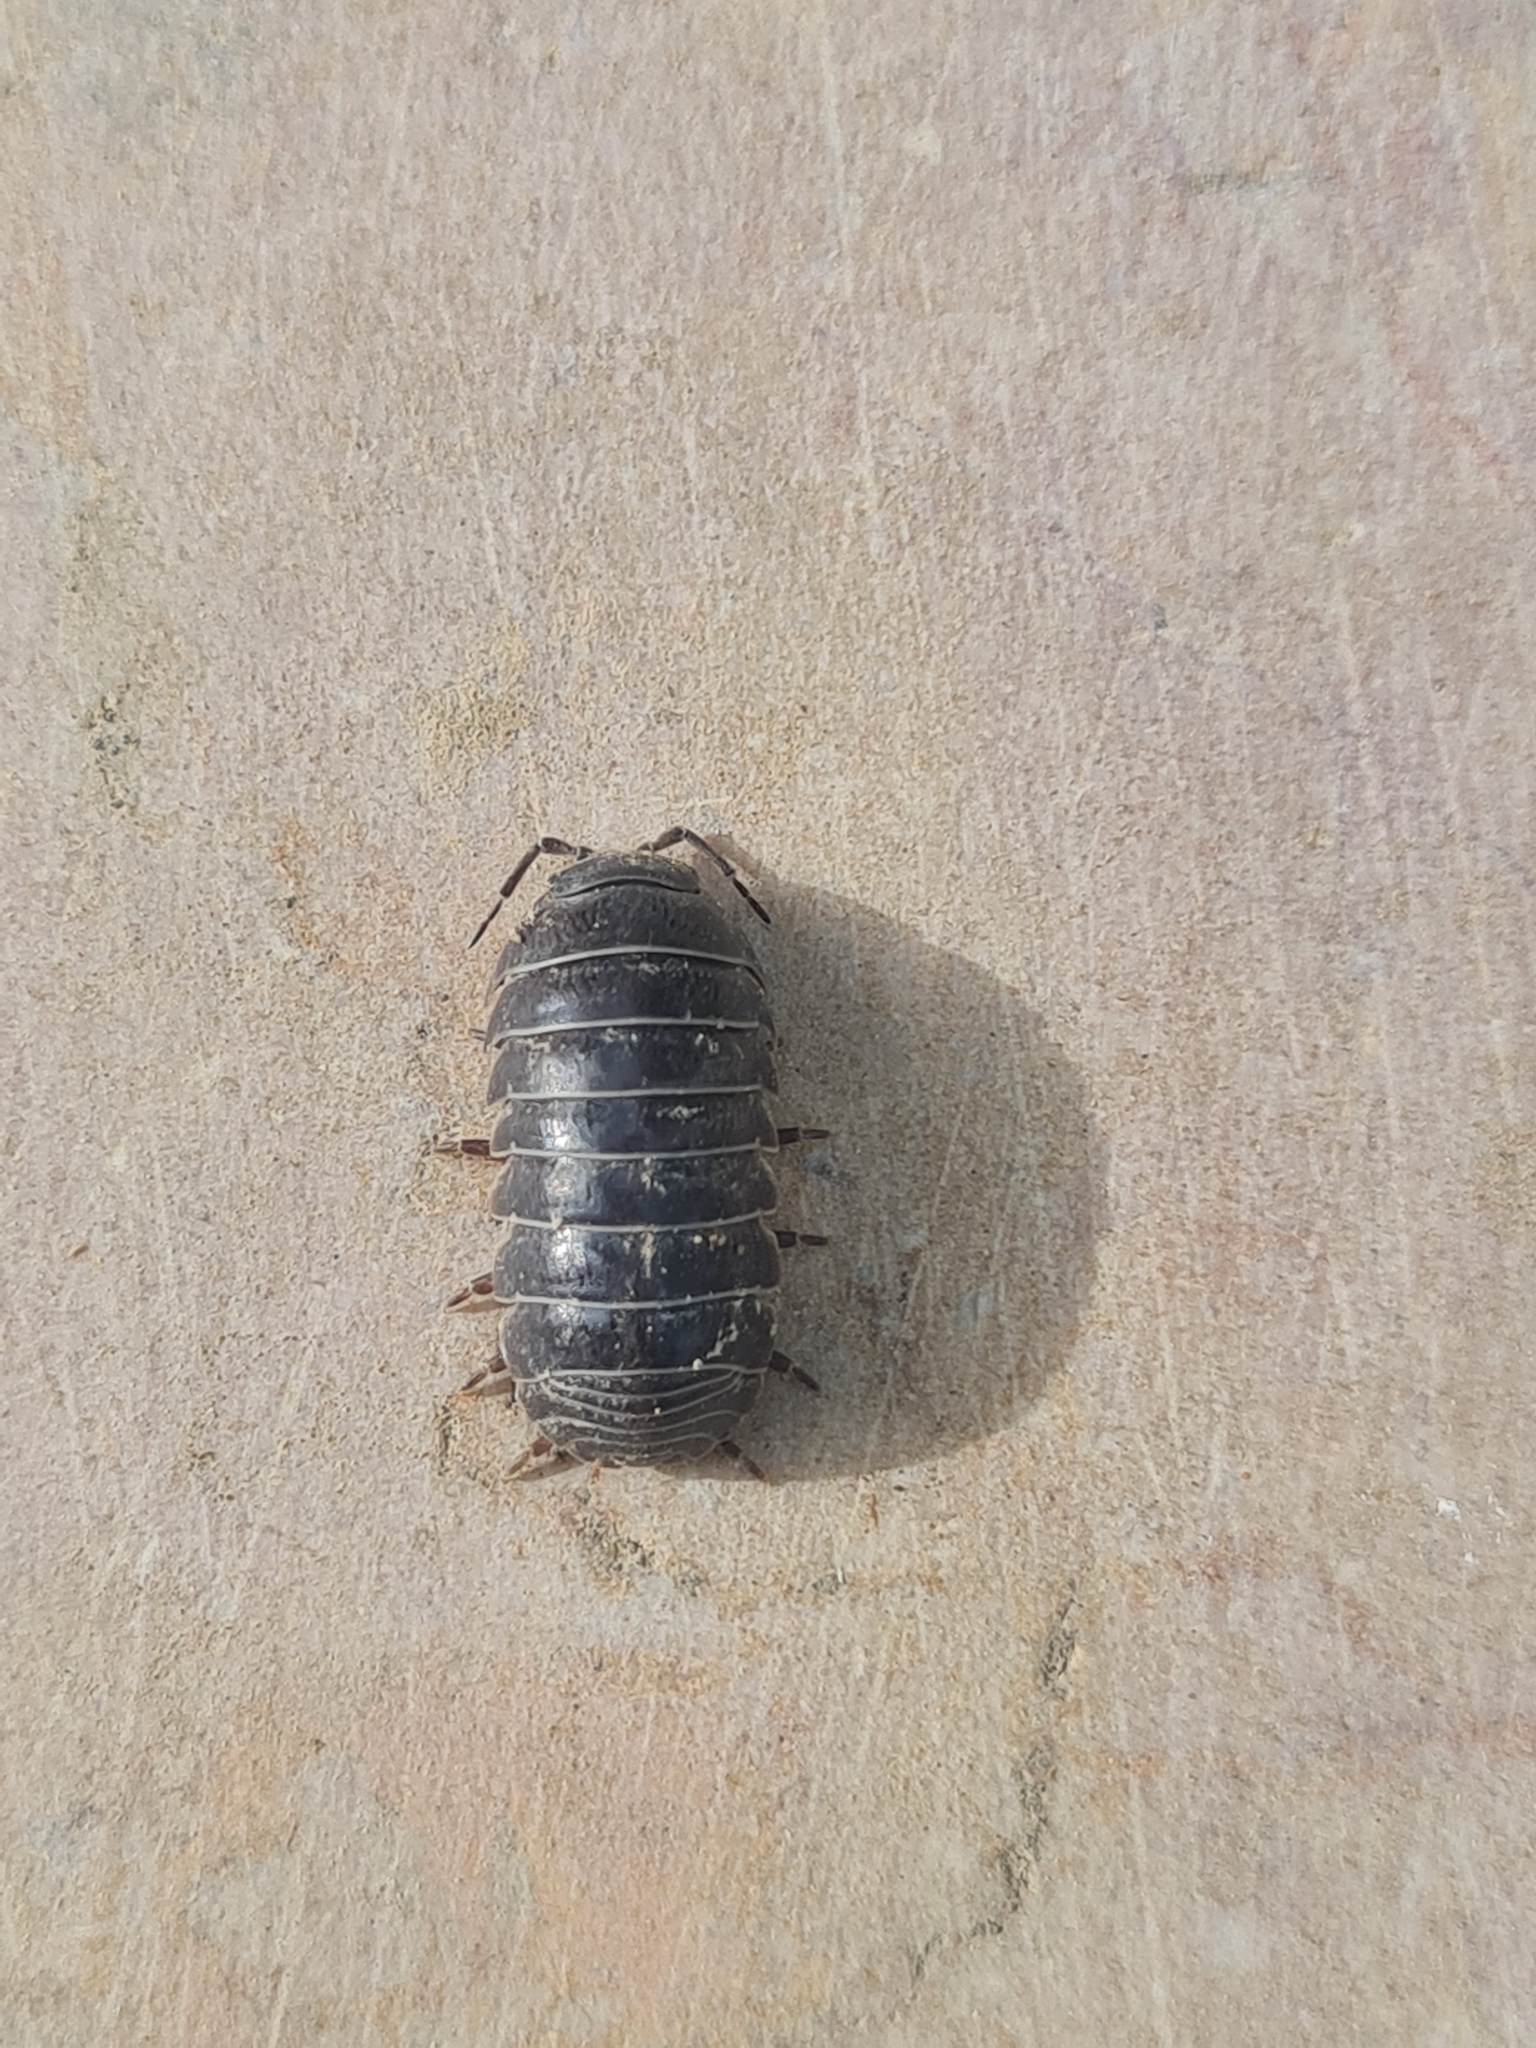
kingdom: Animalia
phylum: Arthropoda
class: Malacostraca
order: Isopoda
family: Armadillidiidae
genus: Armadillidium
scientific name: Armadillidium vulgare
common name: Common pill woodlouse
